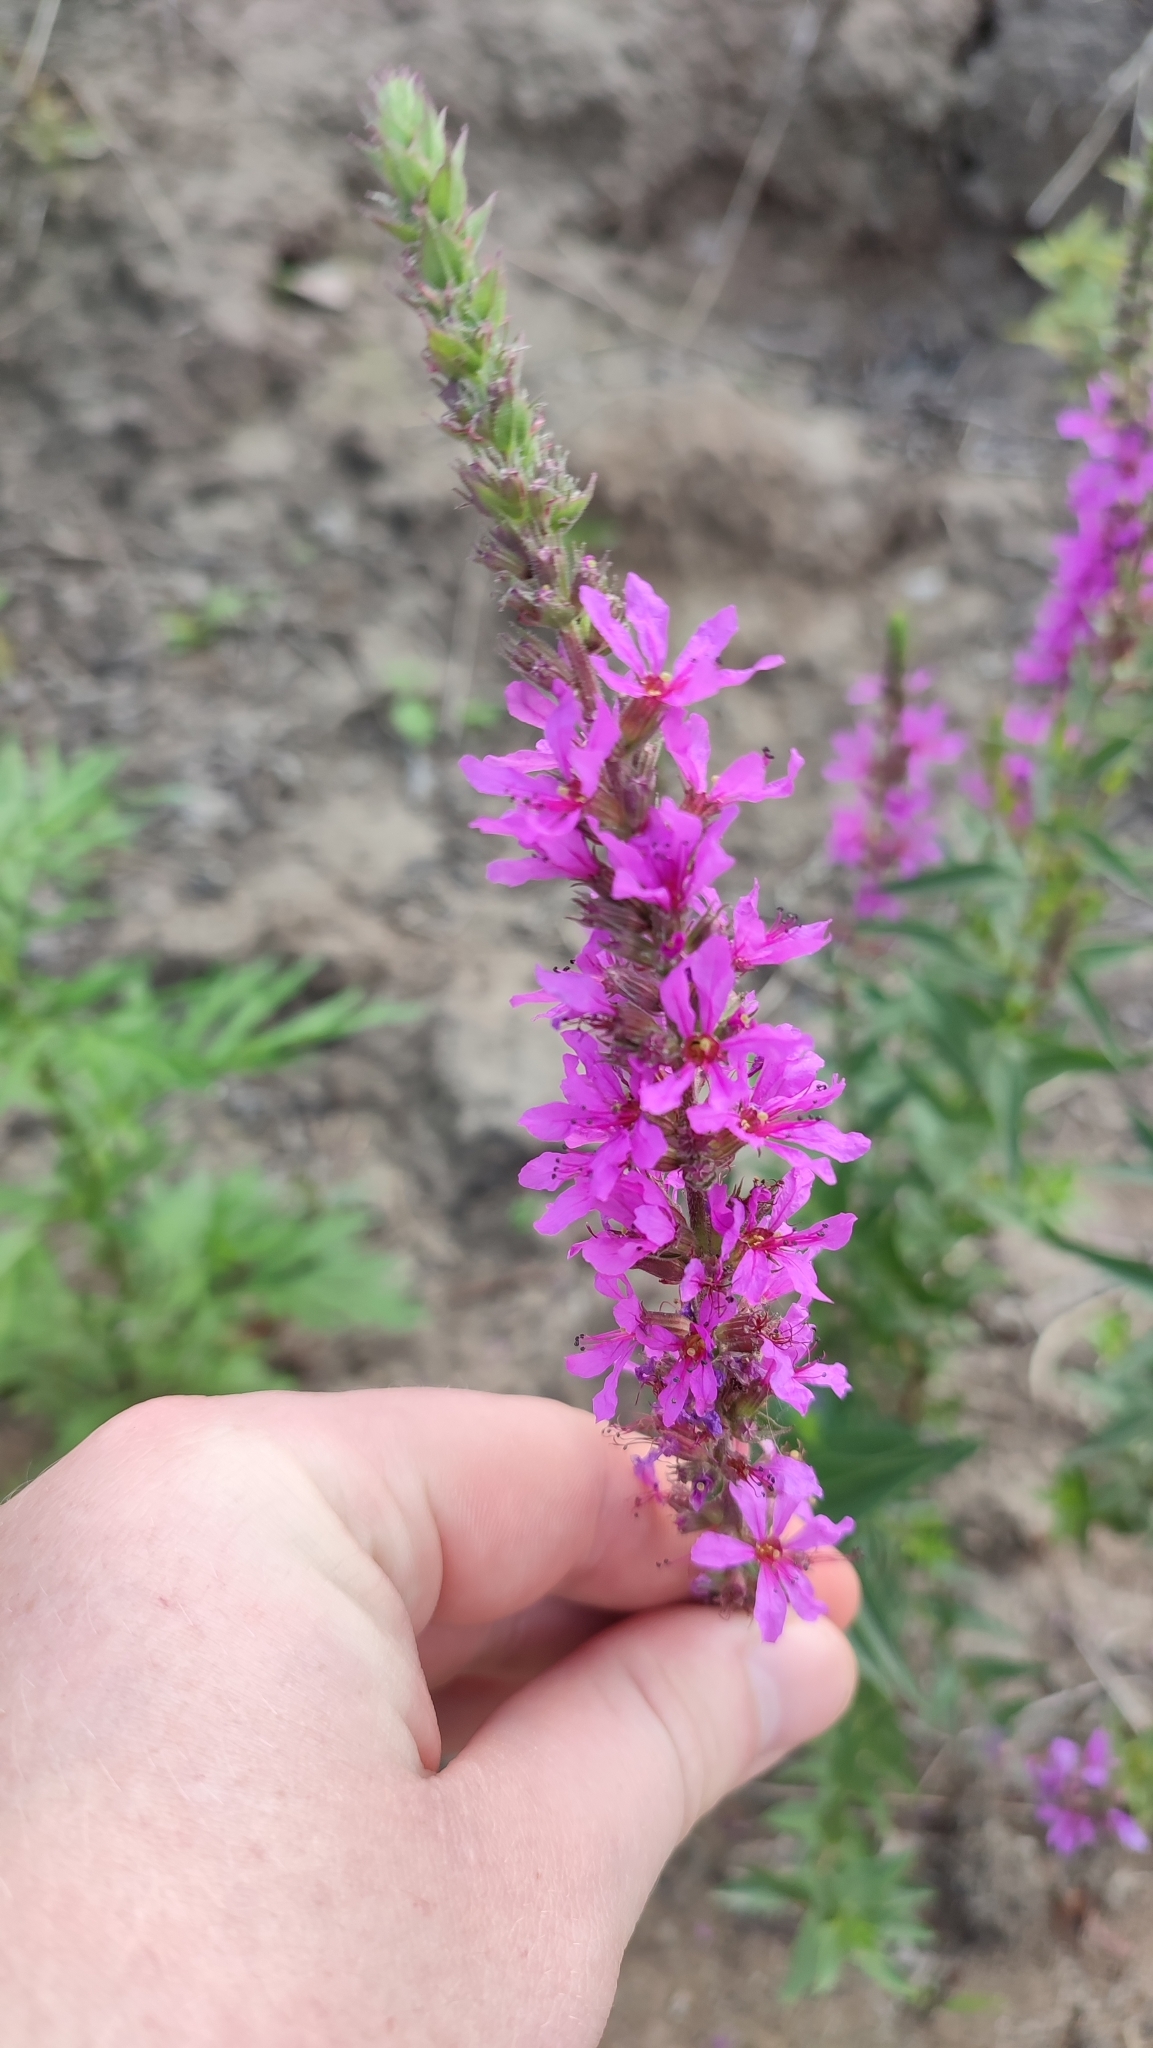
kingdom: Plantae
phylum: Tracheophyta
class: Magnoliopsida
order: Myrtales
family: Lythraceae
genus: Lythrum
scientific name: Lythrum salicaria
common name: Purple loosestrife
